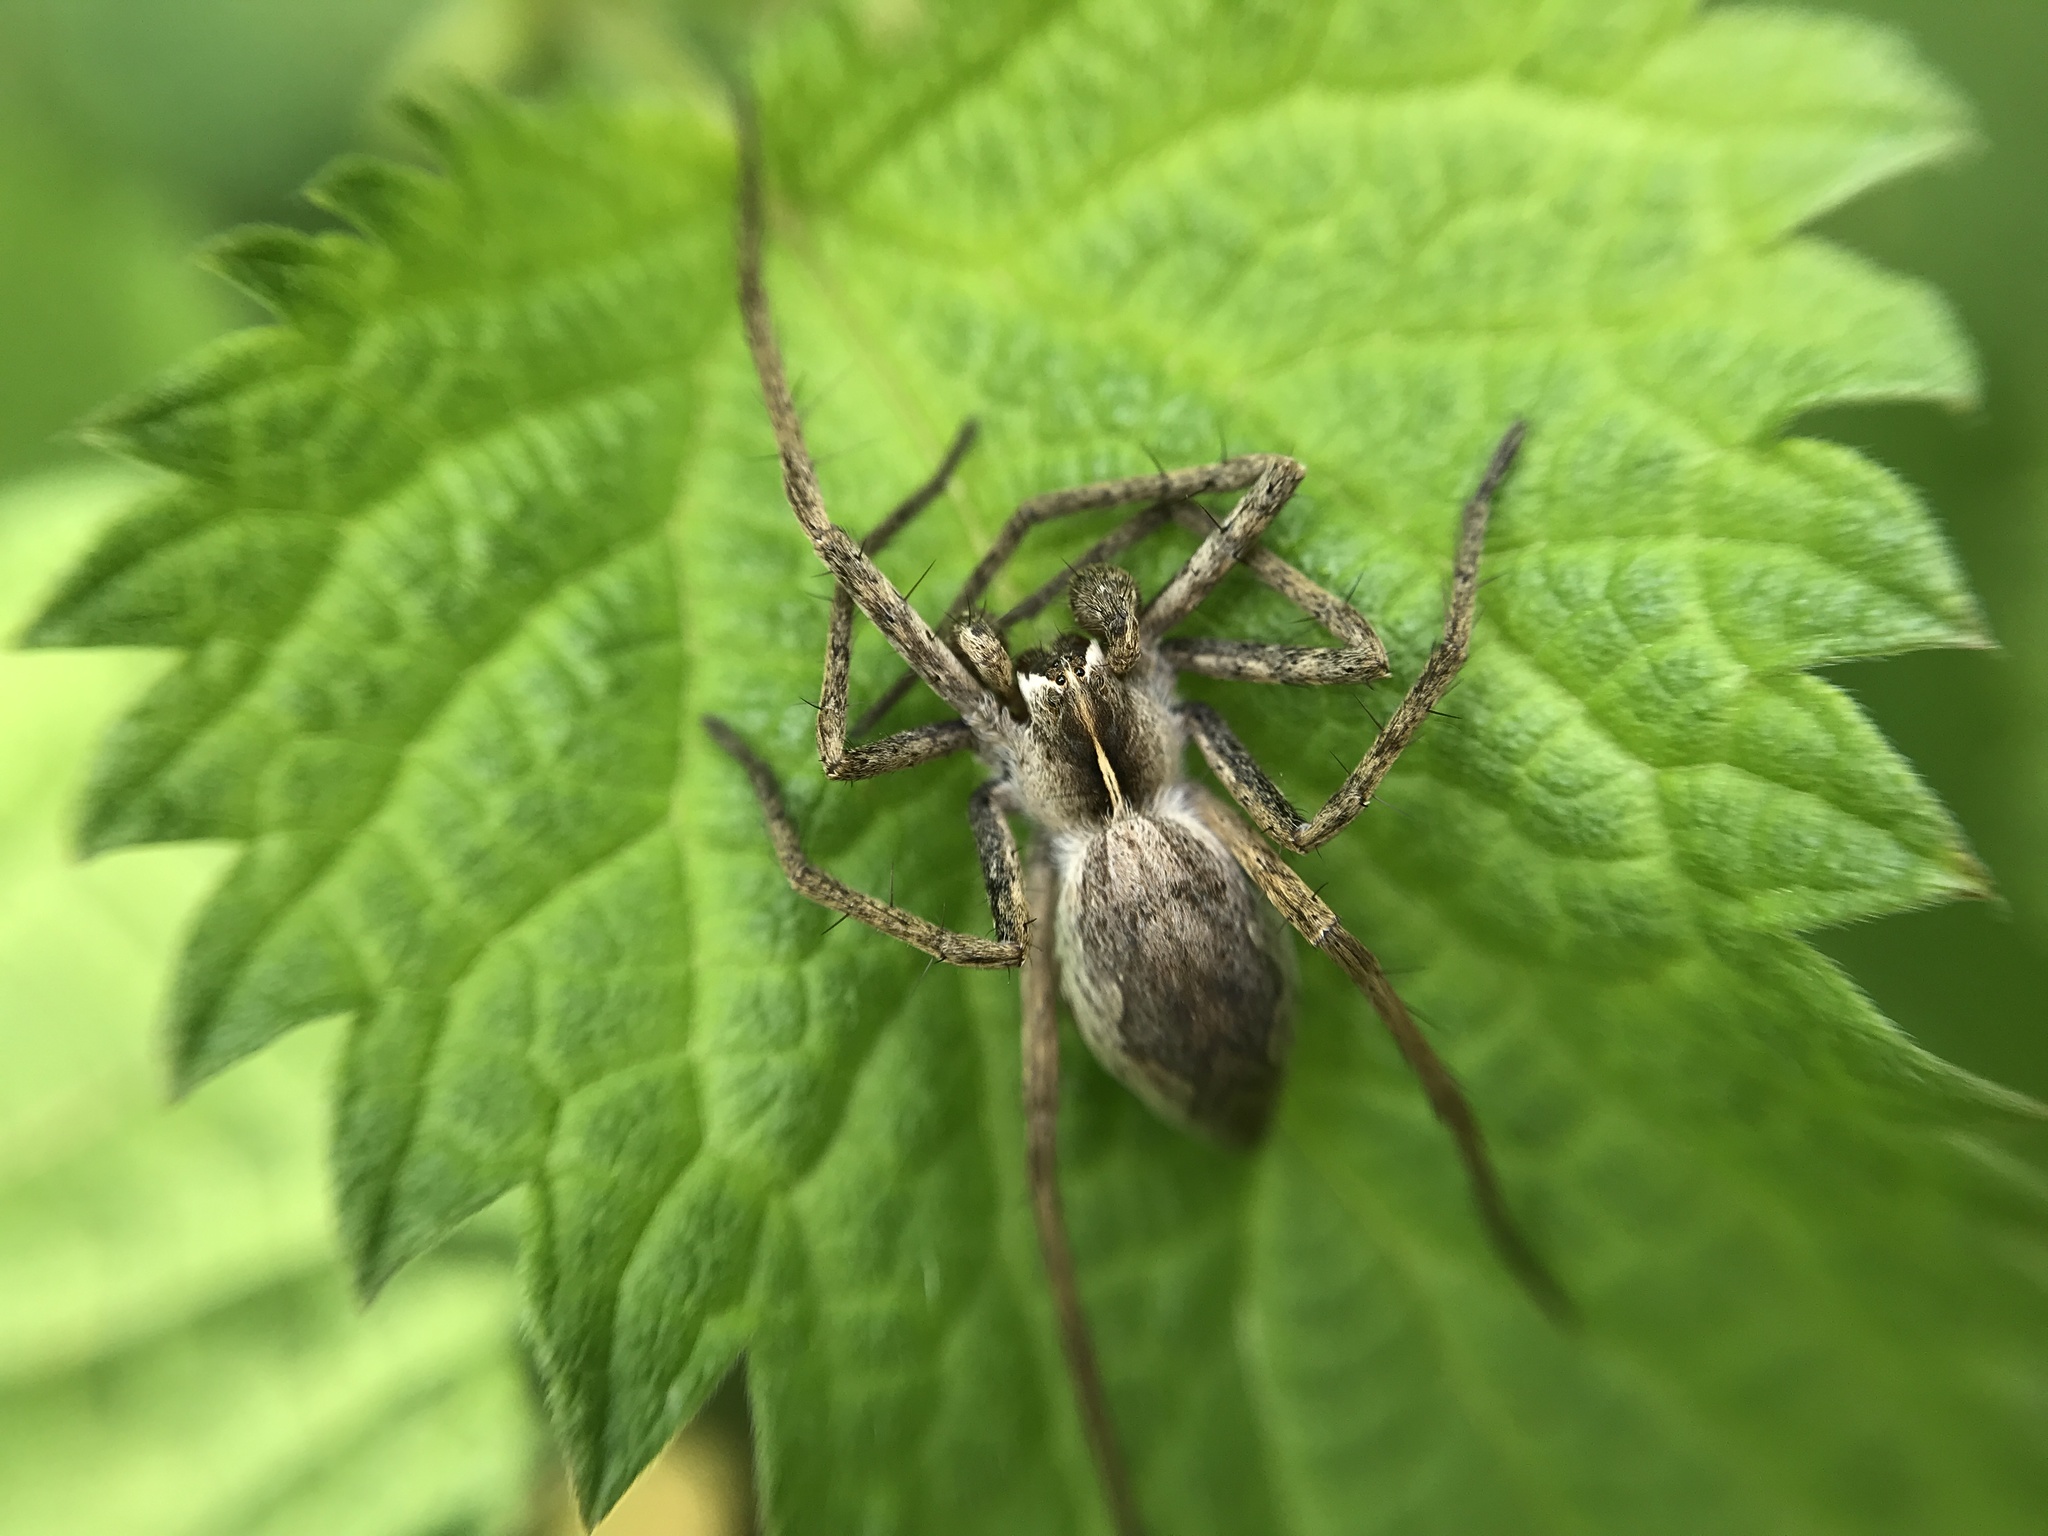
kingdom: Animalia
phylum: Arthropoda
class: Arachnida
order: Araneae
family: Pisauridae
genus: Pisaura
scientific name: Pisaura mirabilis
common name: Tent spider
